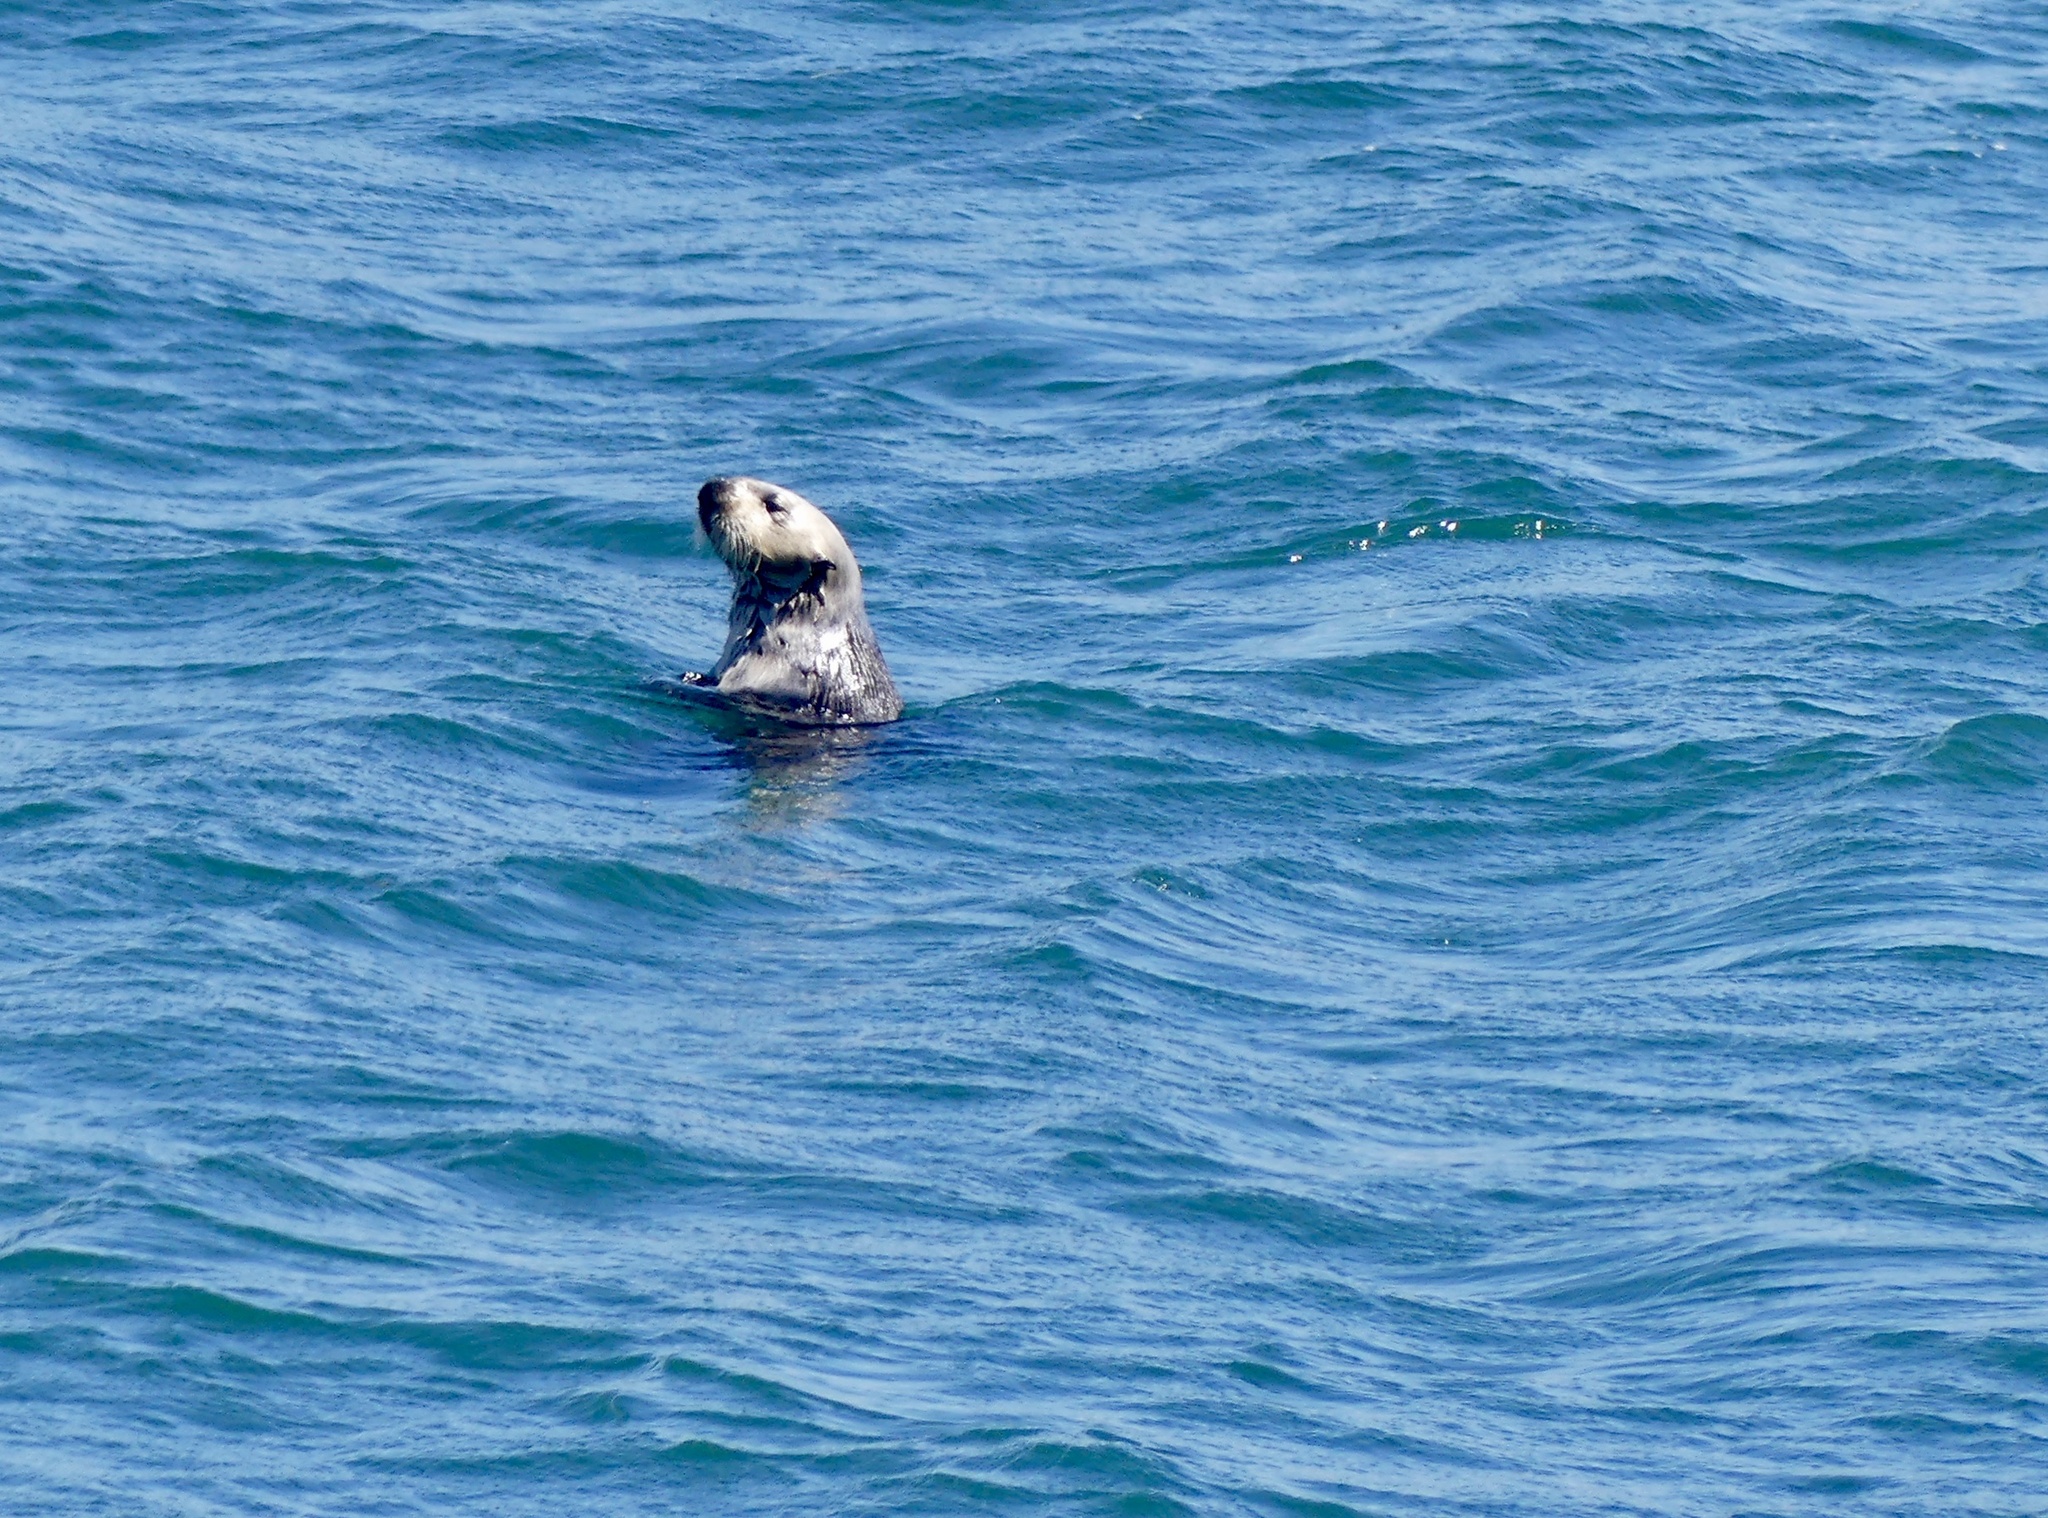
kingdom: Animalia
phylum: Chordata
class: Mammalia
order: Carnivora
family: Mustelidae
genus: Enhydra
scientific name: Enhydra lutris
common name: Sea otter
